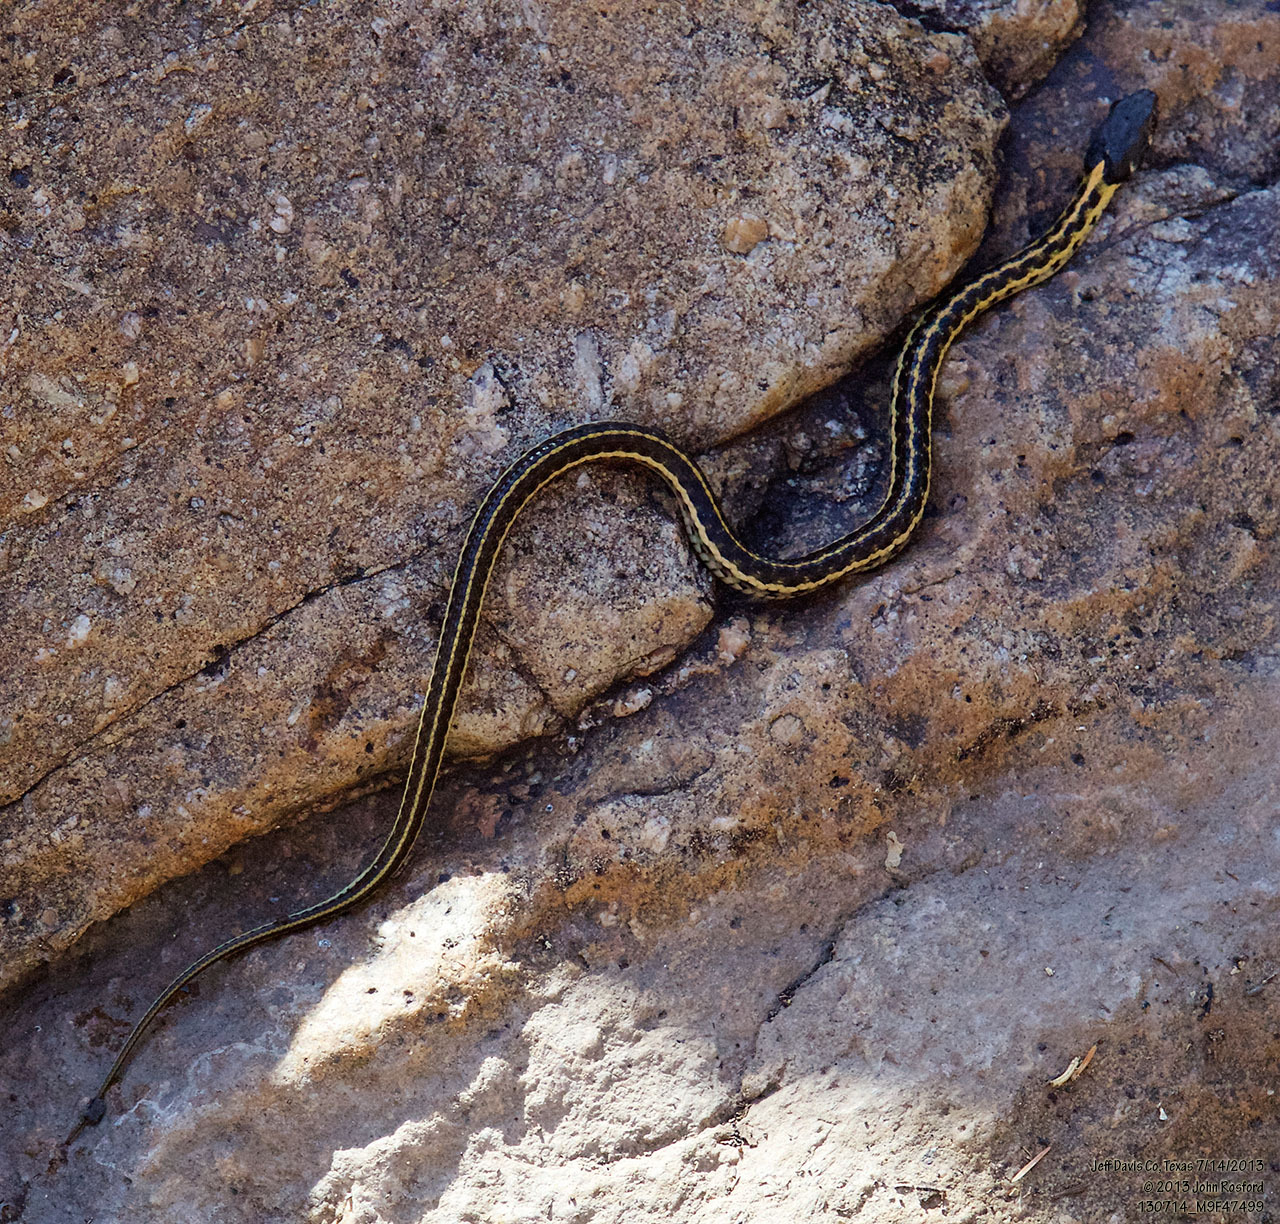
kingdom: Animalia
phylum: Chordata
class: Squamata
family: Colubridae
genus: Thamnophis
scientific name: Thamnophis cyrtopsis
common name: Black-necked gartersnake
